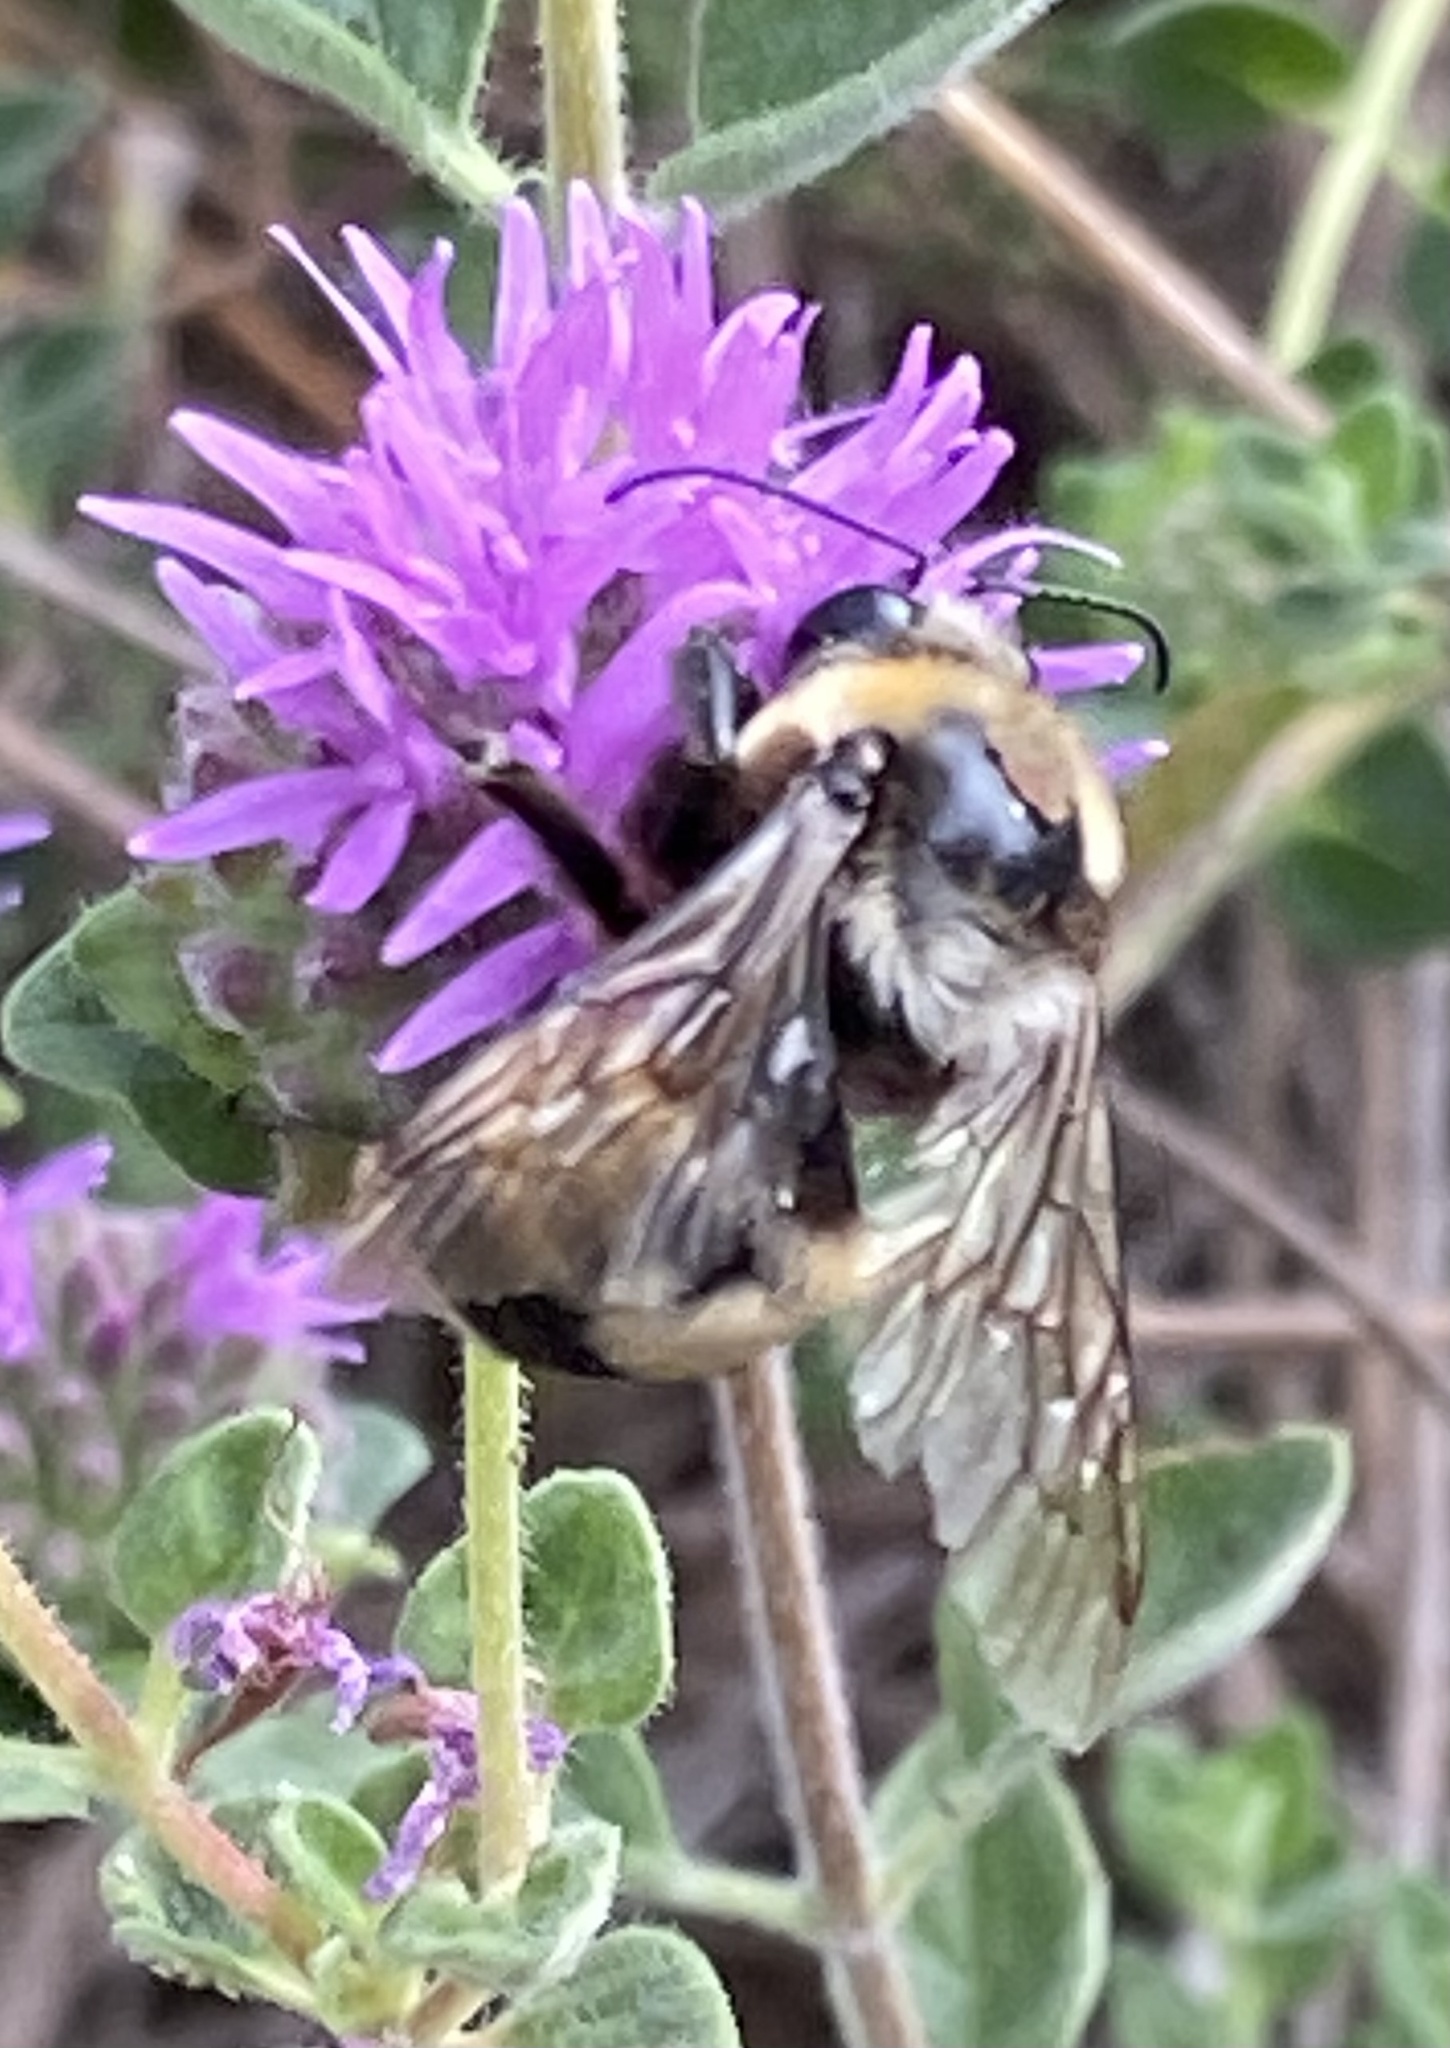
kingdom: Animalia
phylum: Arthropoda
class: Insecta
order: Hymenoptera
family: Apidae
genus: Bombus
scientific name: Bombus crotchii
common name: Crotch bumble bee
